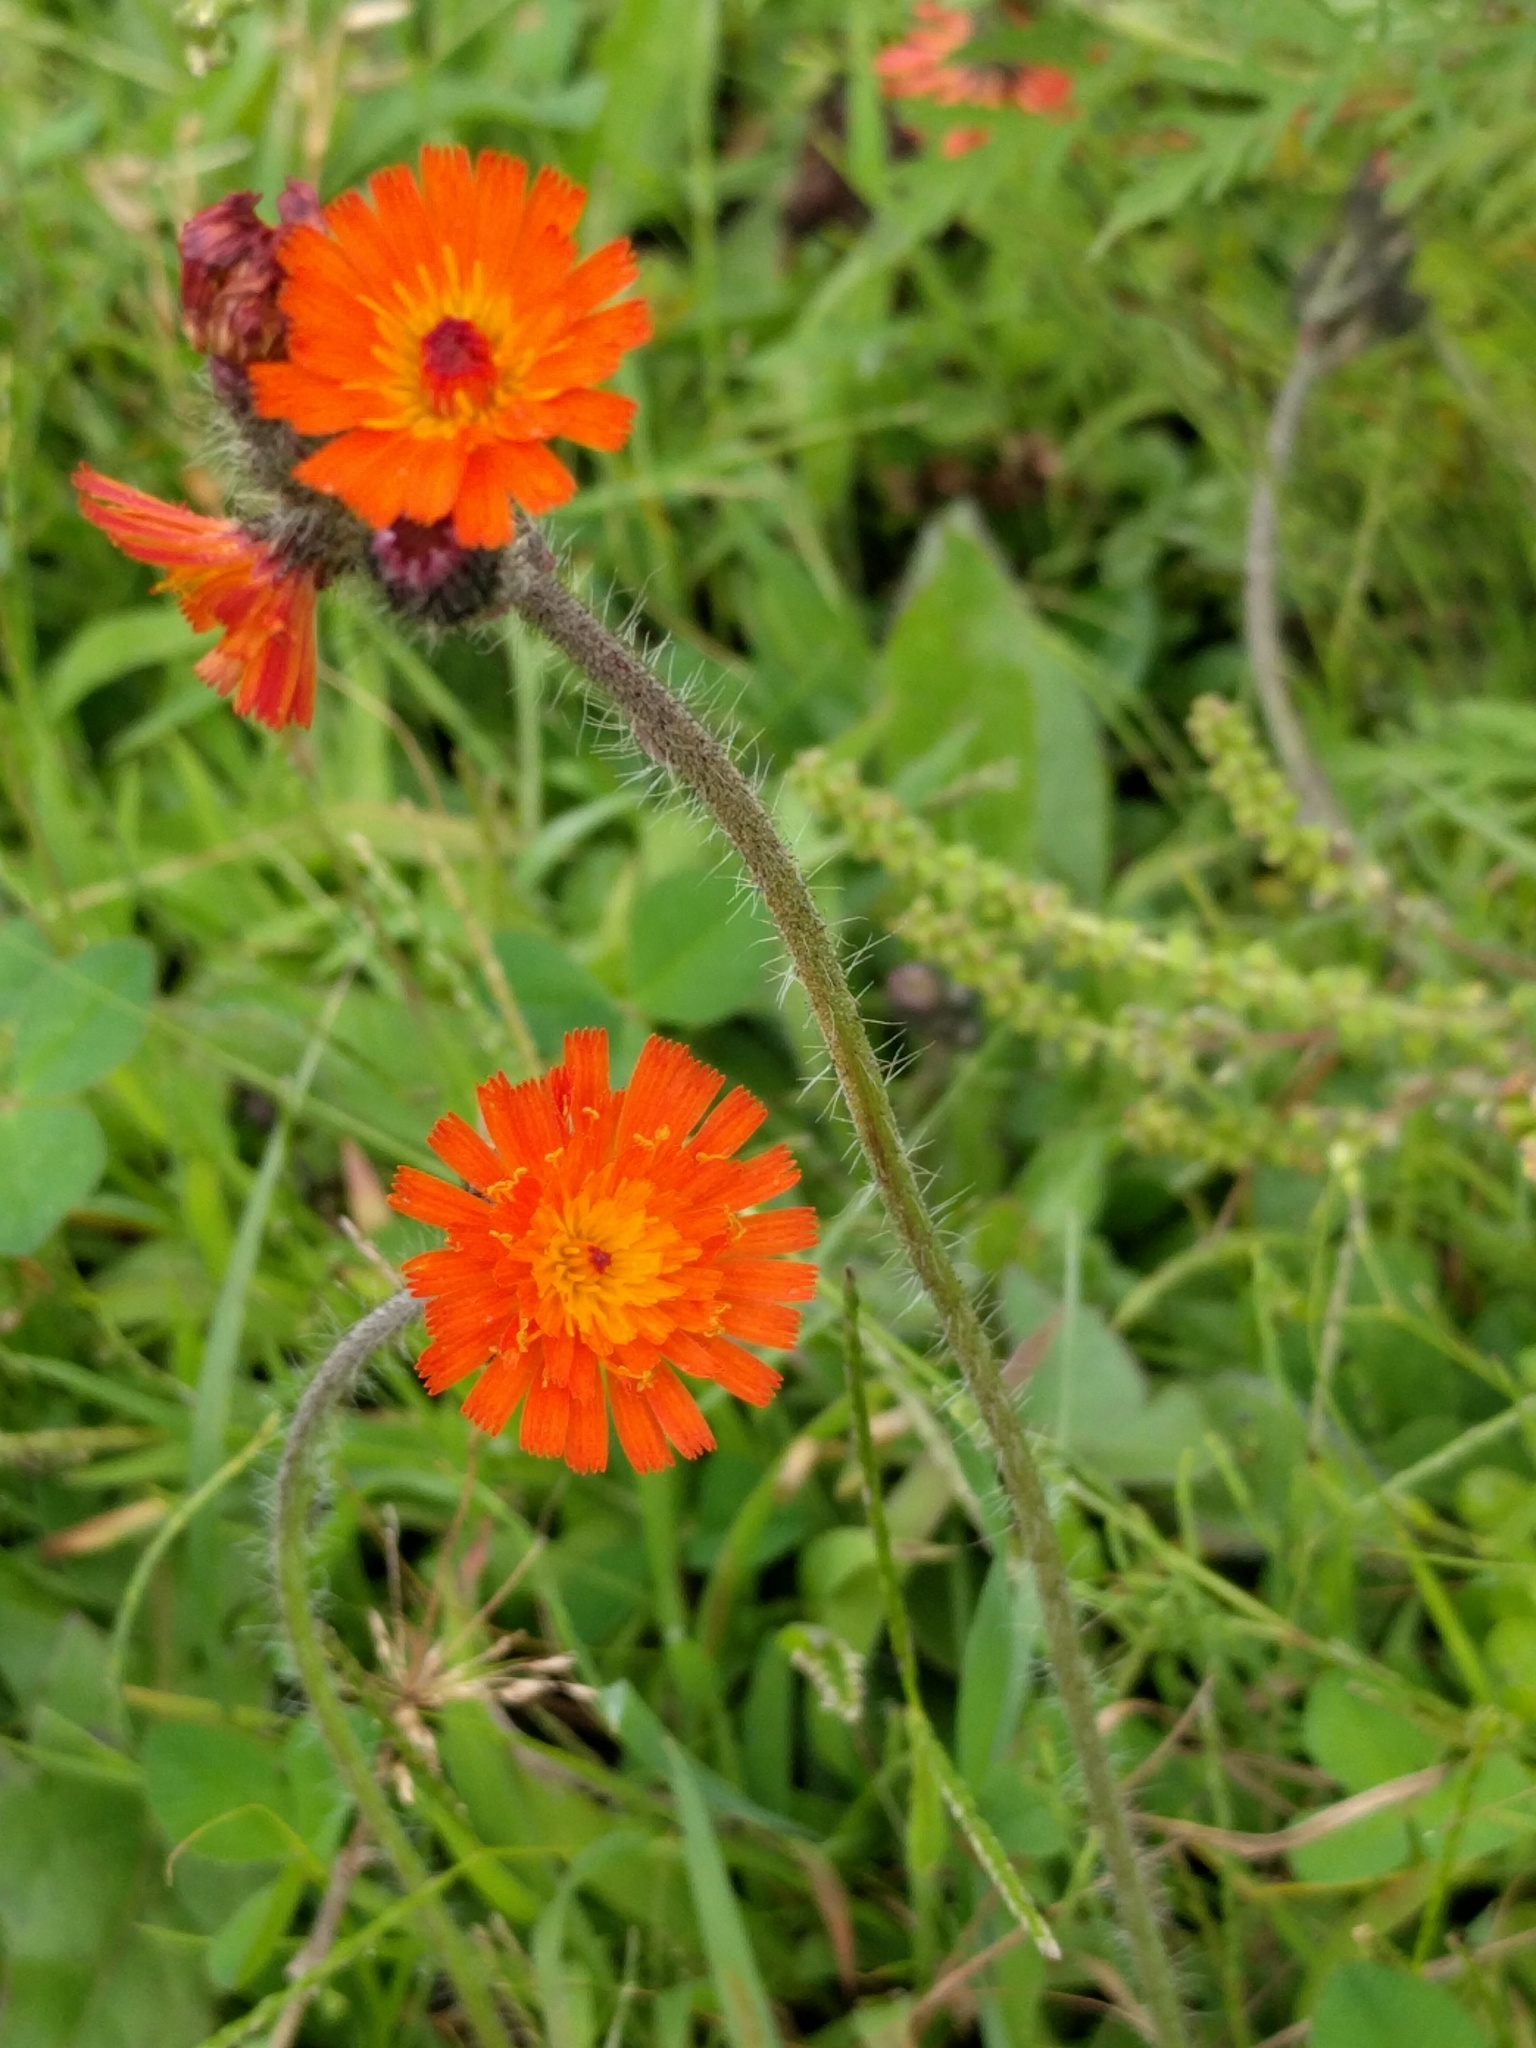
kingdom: Plantae
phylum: Tracheophyta
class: Magnoliopsida
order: Asterales
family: Asteraceae
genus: Pilosella
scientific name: Pilosella aurantiaca
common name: Fox-and-cubs
